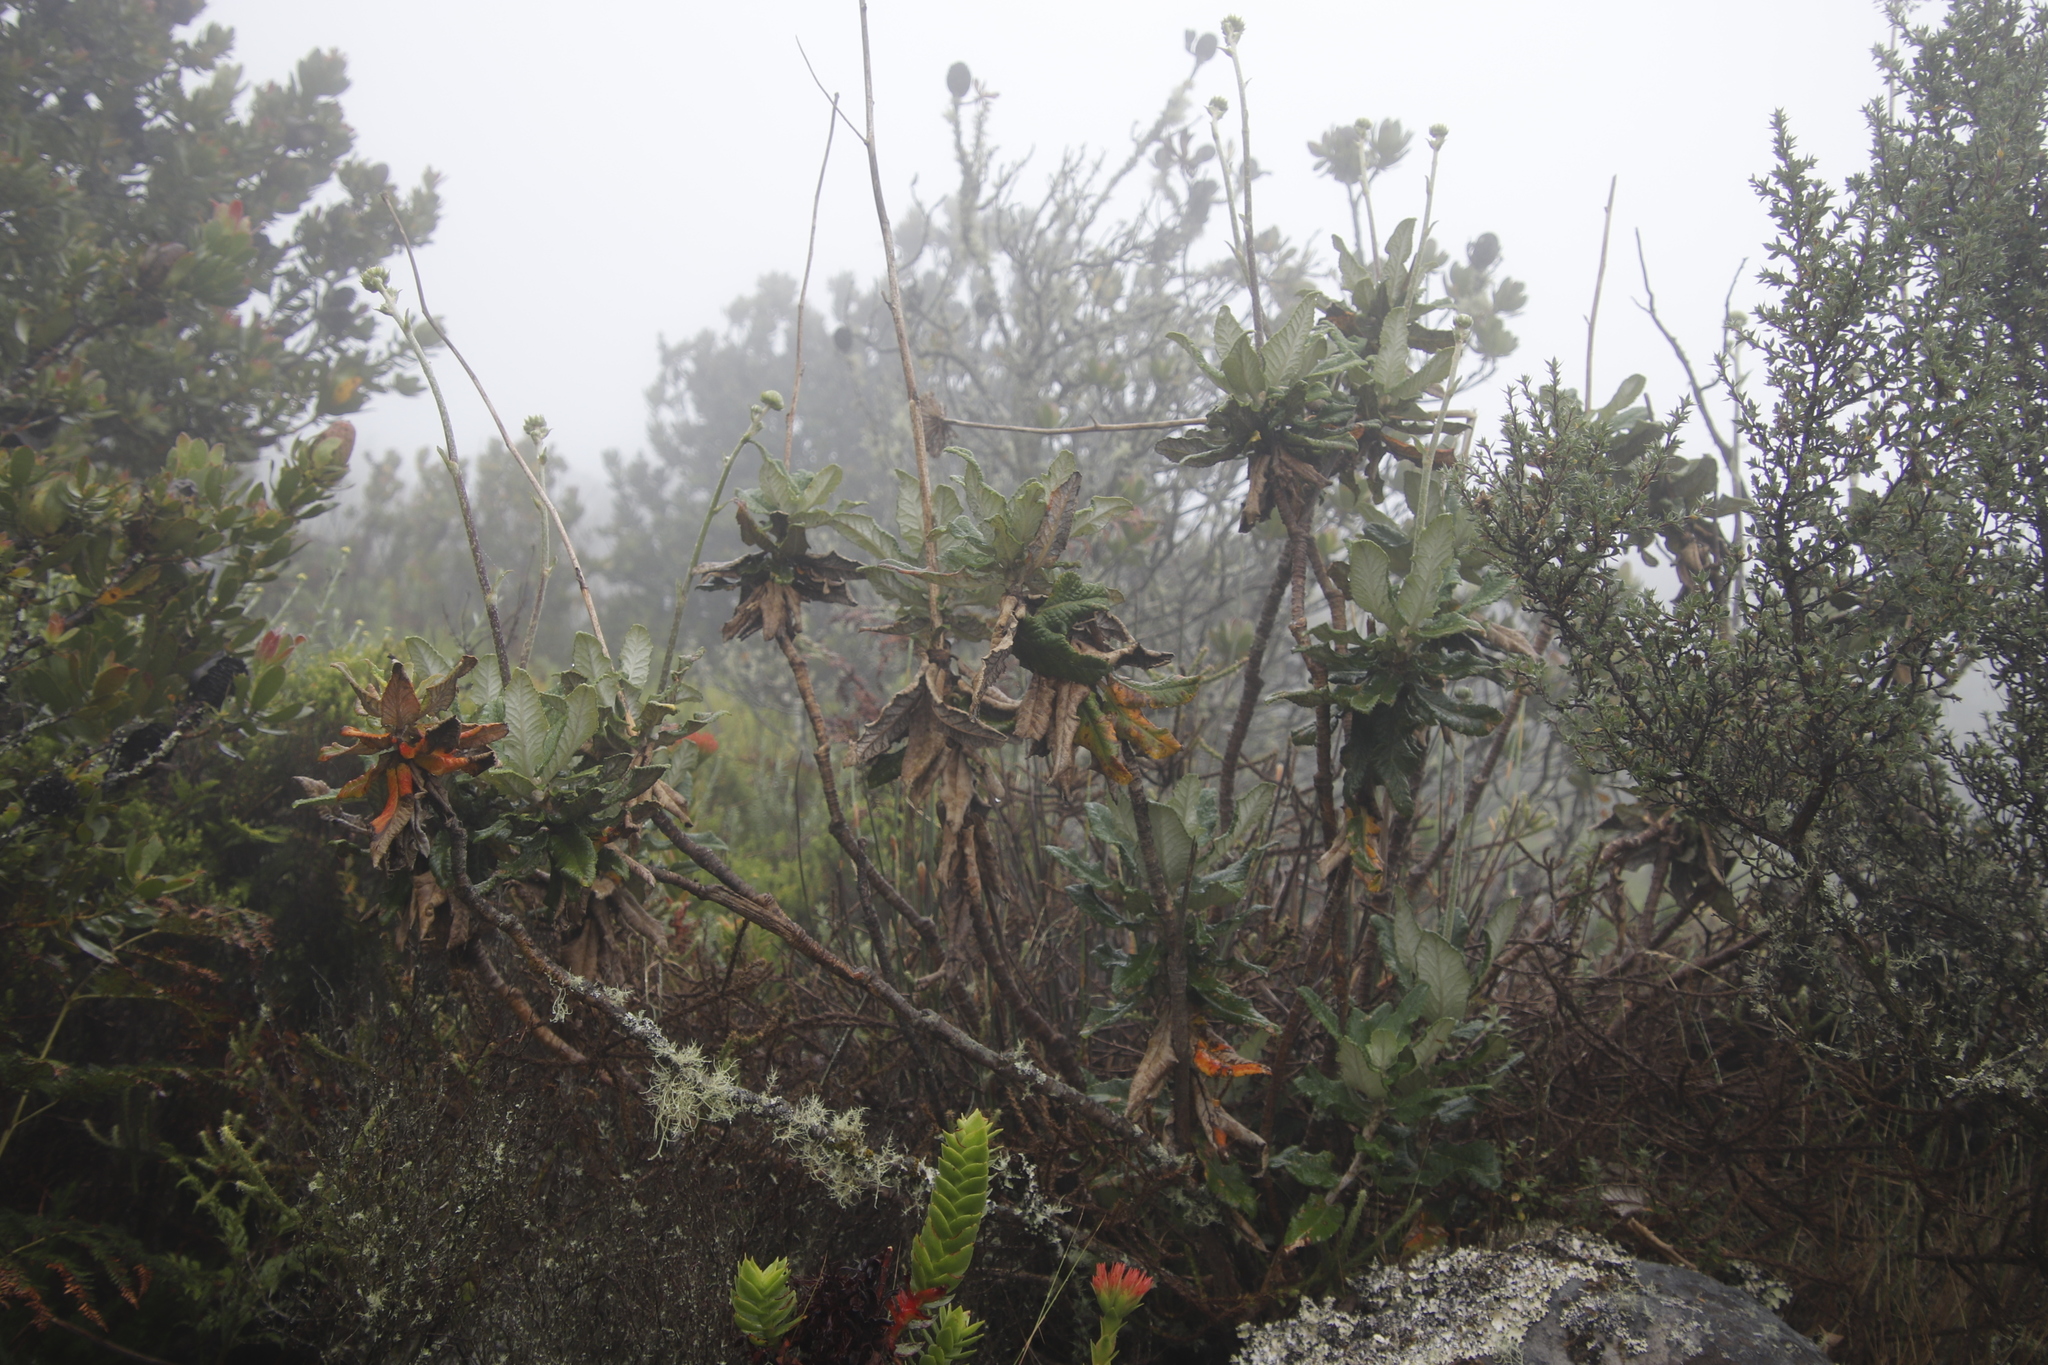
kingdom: Plantae
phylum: Tracheophyta
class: Magnoliopsida
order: Apiales
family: Apiaceae
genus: Hermas
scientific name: Hermas villosa
